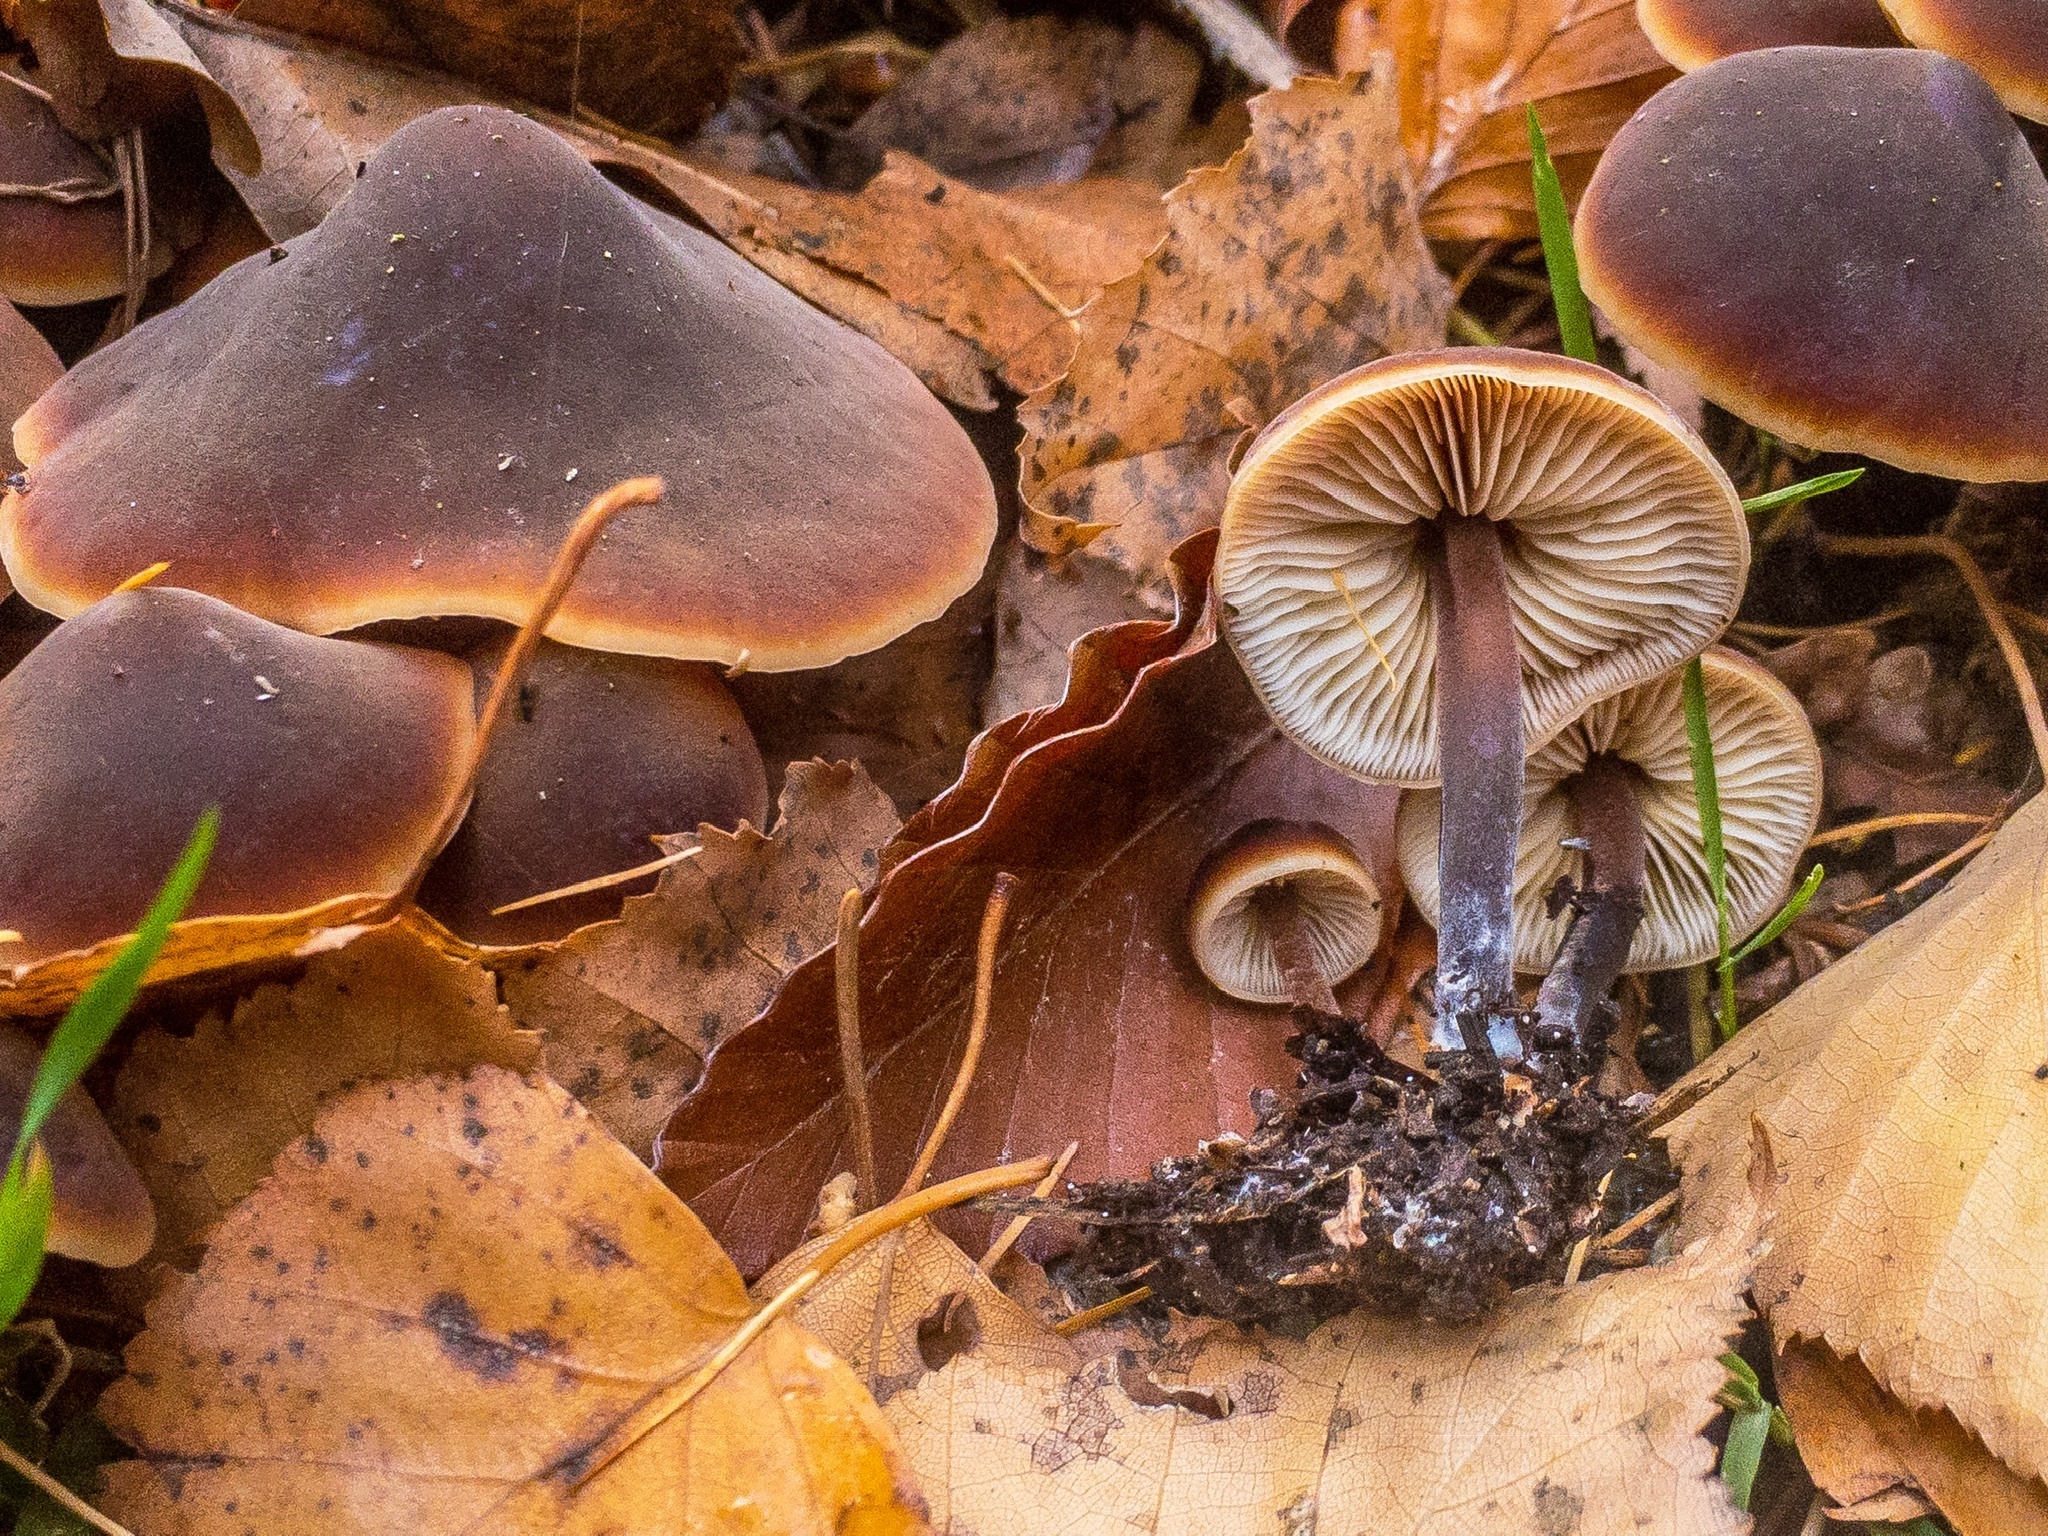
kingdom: Fungi
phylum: Basidiomycota
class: Agaricomycetes
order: Agaricales
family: Macrocystidiaceae
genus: Macrocystidia
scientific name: Macrocystidia cucumis
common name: Cucumber cap
